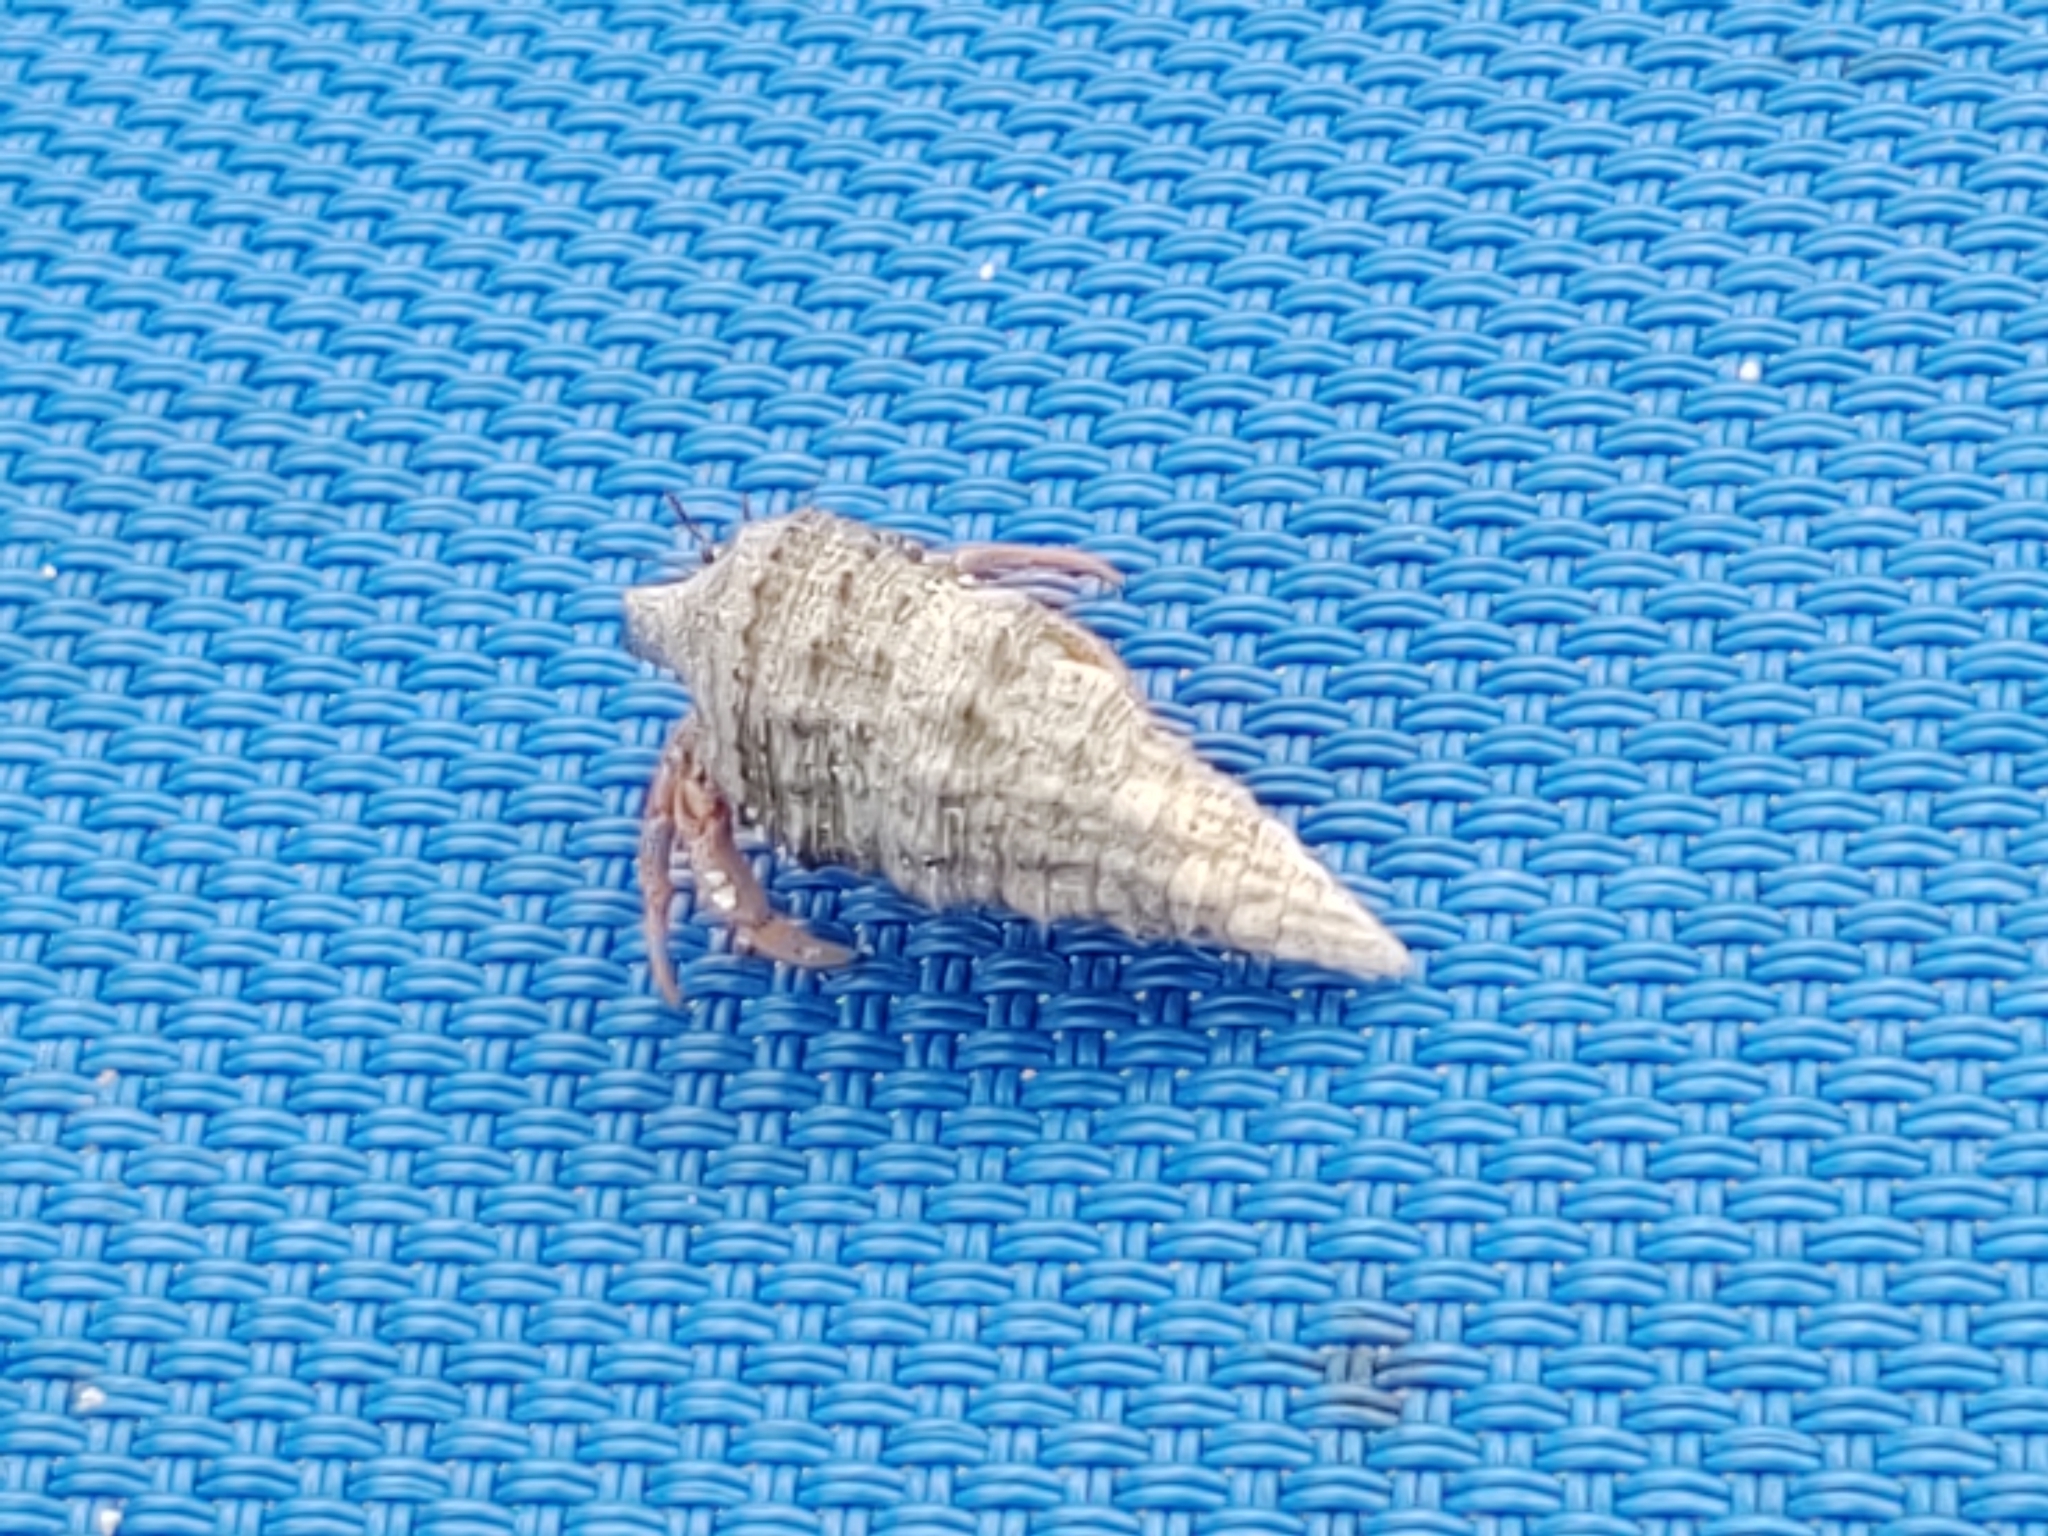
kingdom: Animalia
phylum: Arthropoda
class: Malacostraca
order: Decapoda
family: Coenobitidae
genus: Coenobita
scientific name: Coenobita clypeatus
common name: Caribbean hermit crab
